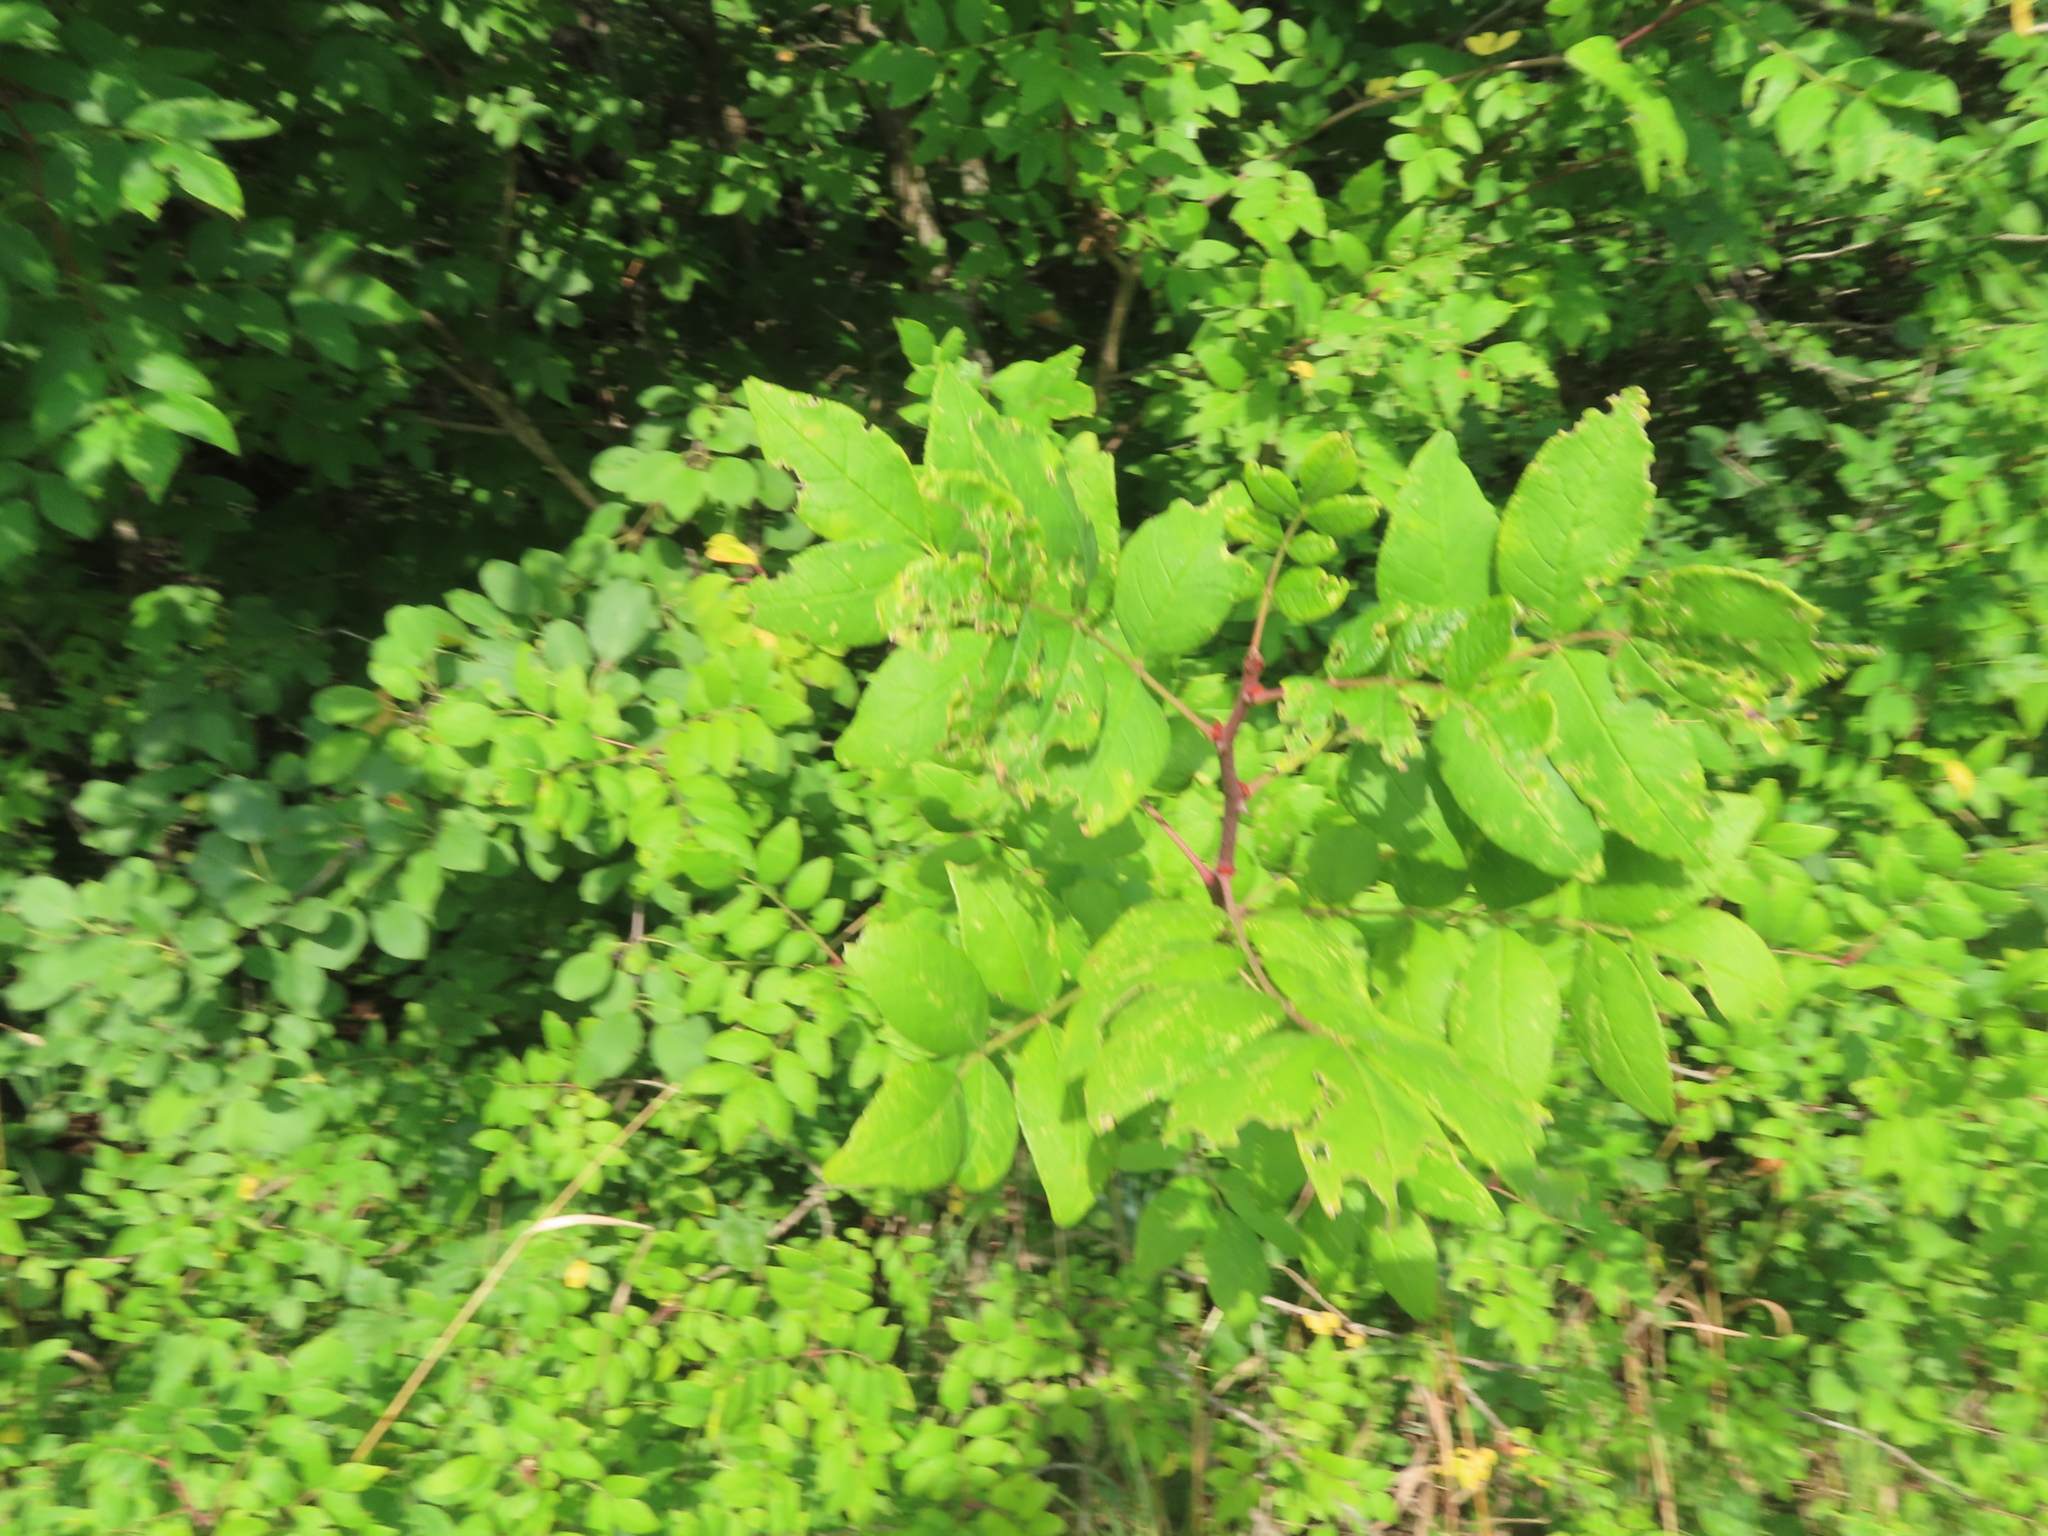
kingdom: Plantae
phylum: Tracheophyta
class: Magnoliopsida
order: Sapindales
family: Rutaceae
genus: Zanthoxylum
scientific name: Zanthoxylum americanum
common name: Northern prickly-ash
